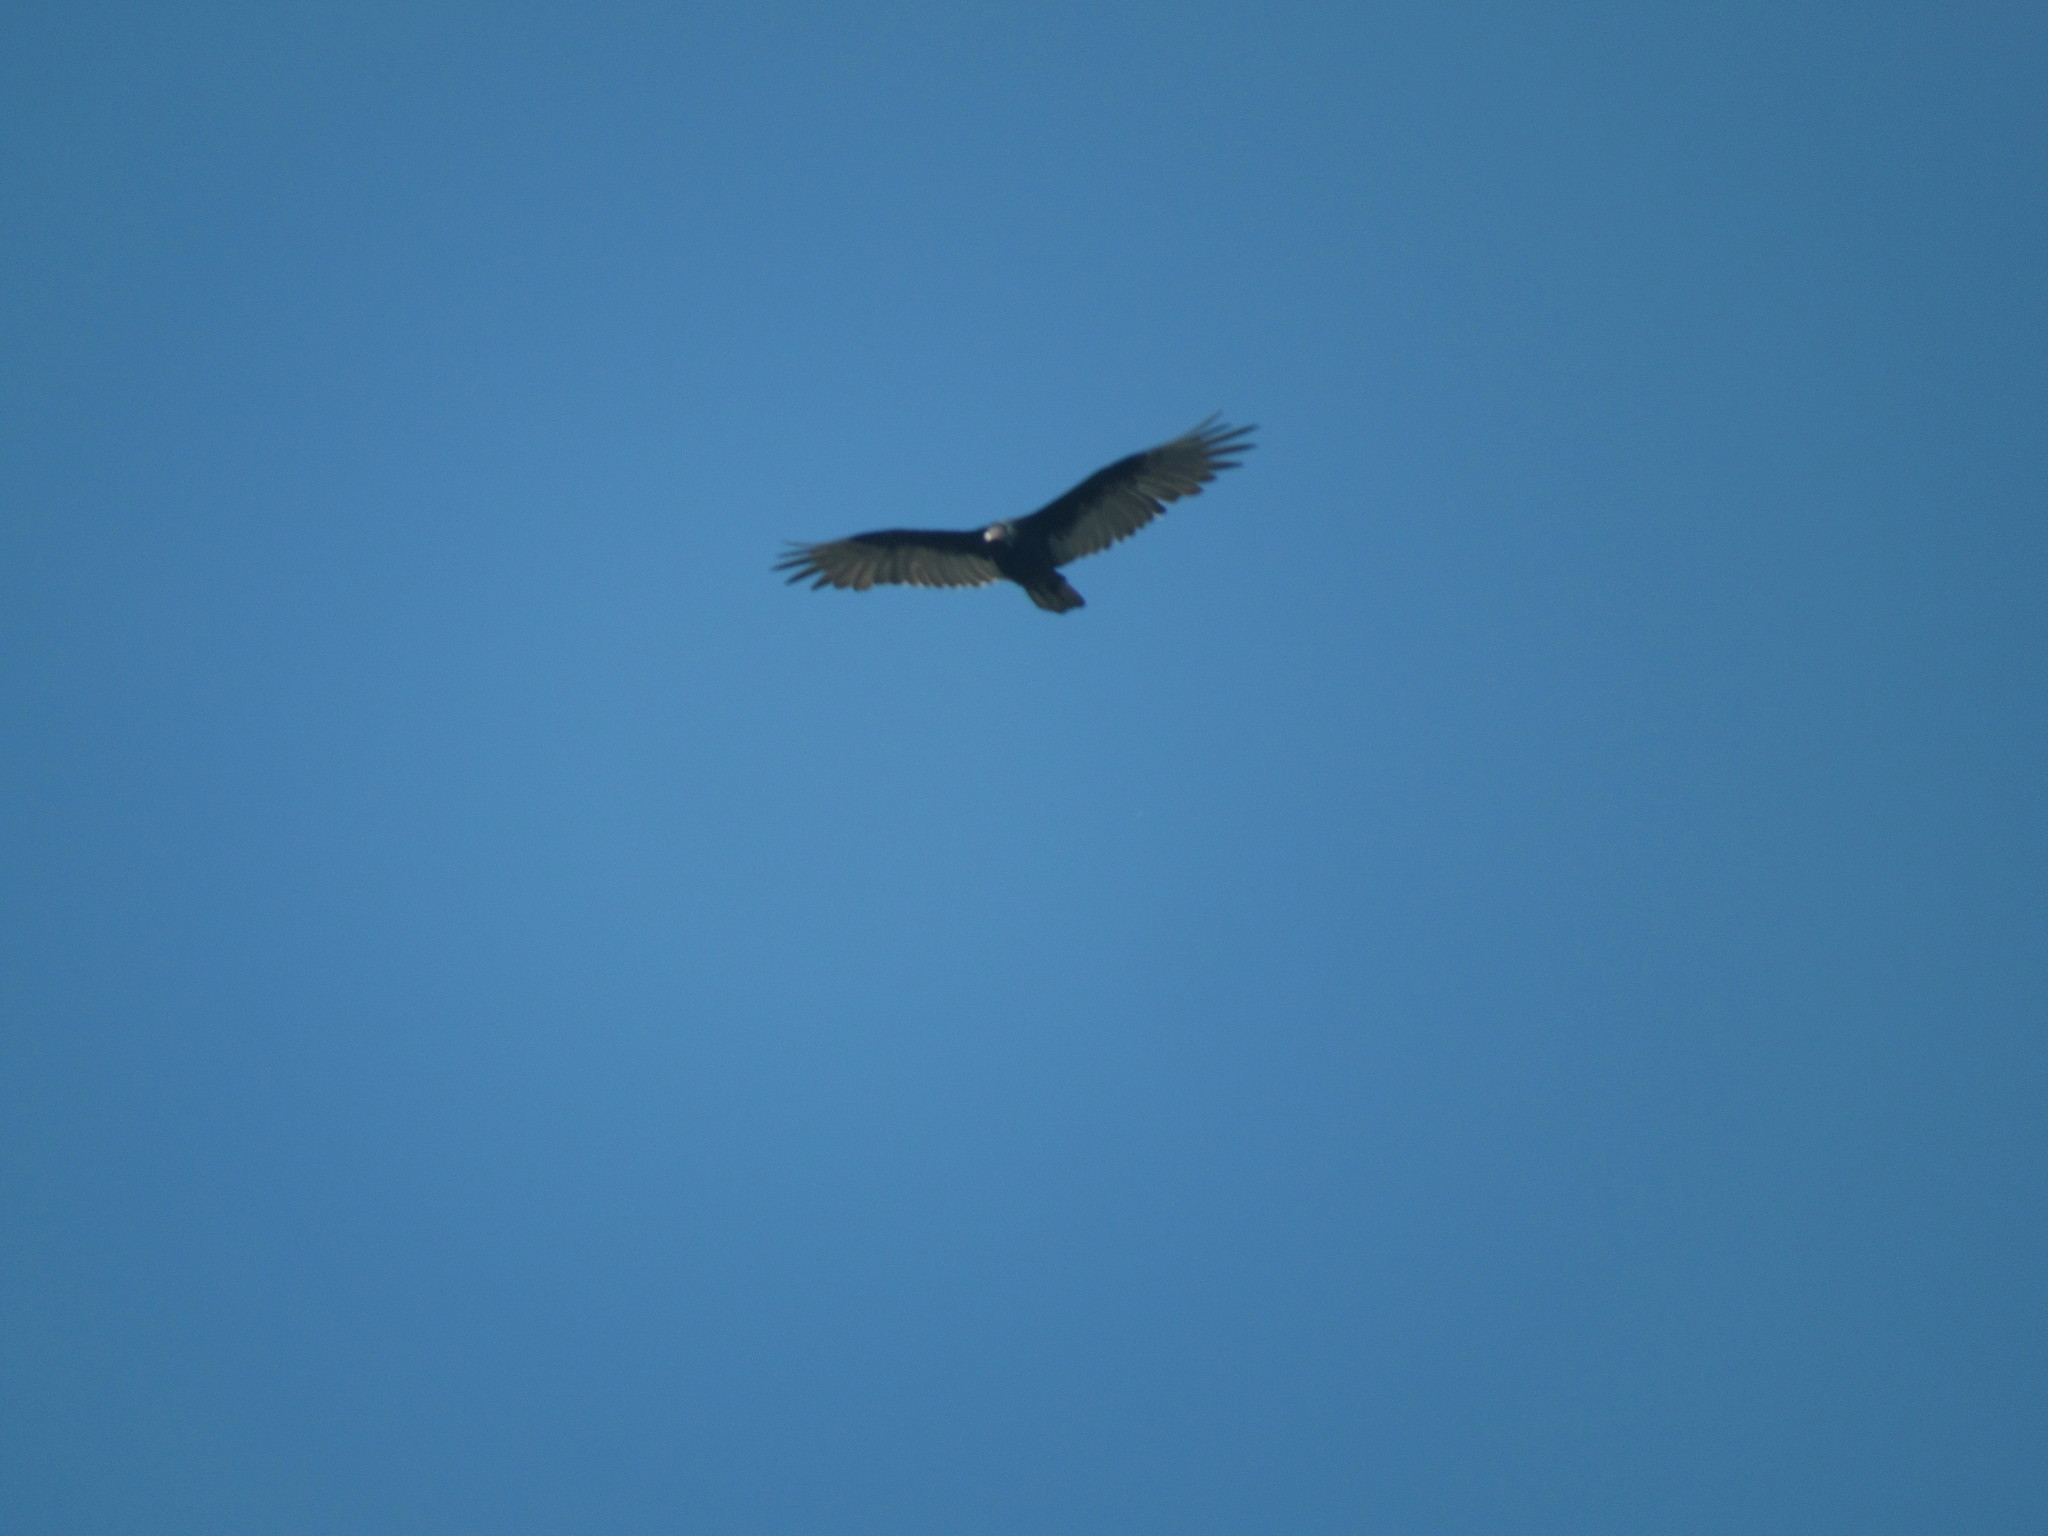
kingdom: Animalia
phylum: Chordata
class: Aves
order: Accipitriformes
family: Cathartidae
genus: Cathartes
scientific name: Cathartes aura
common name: Turkey vulture
